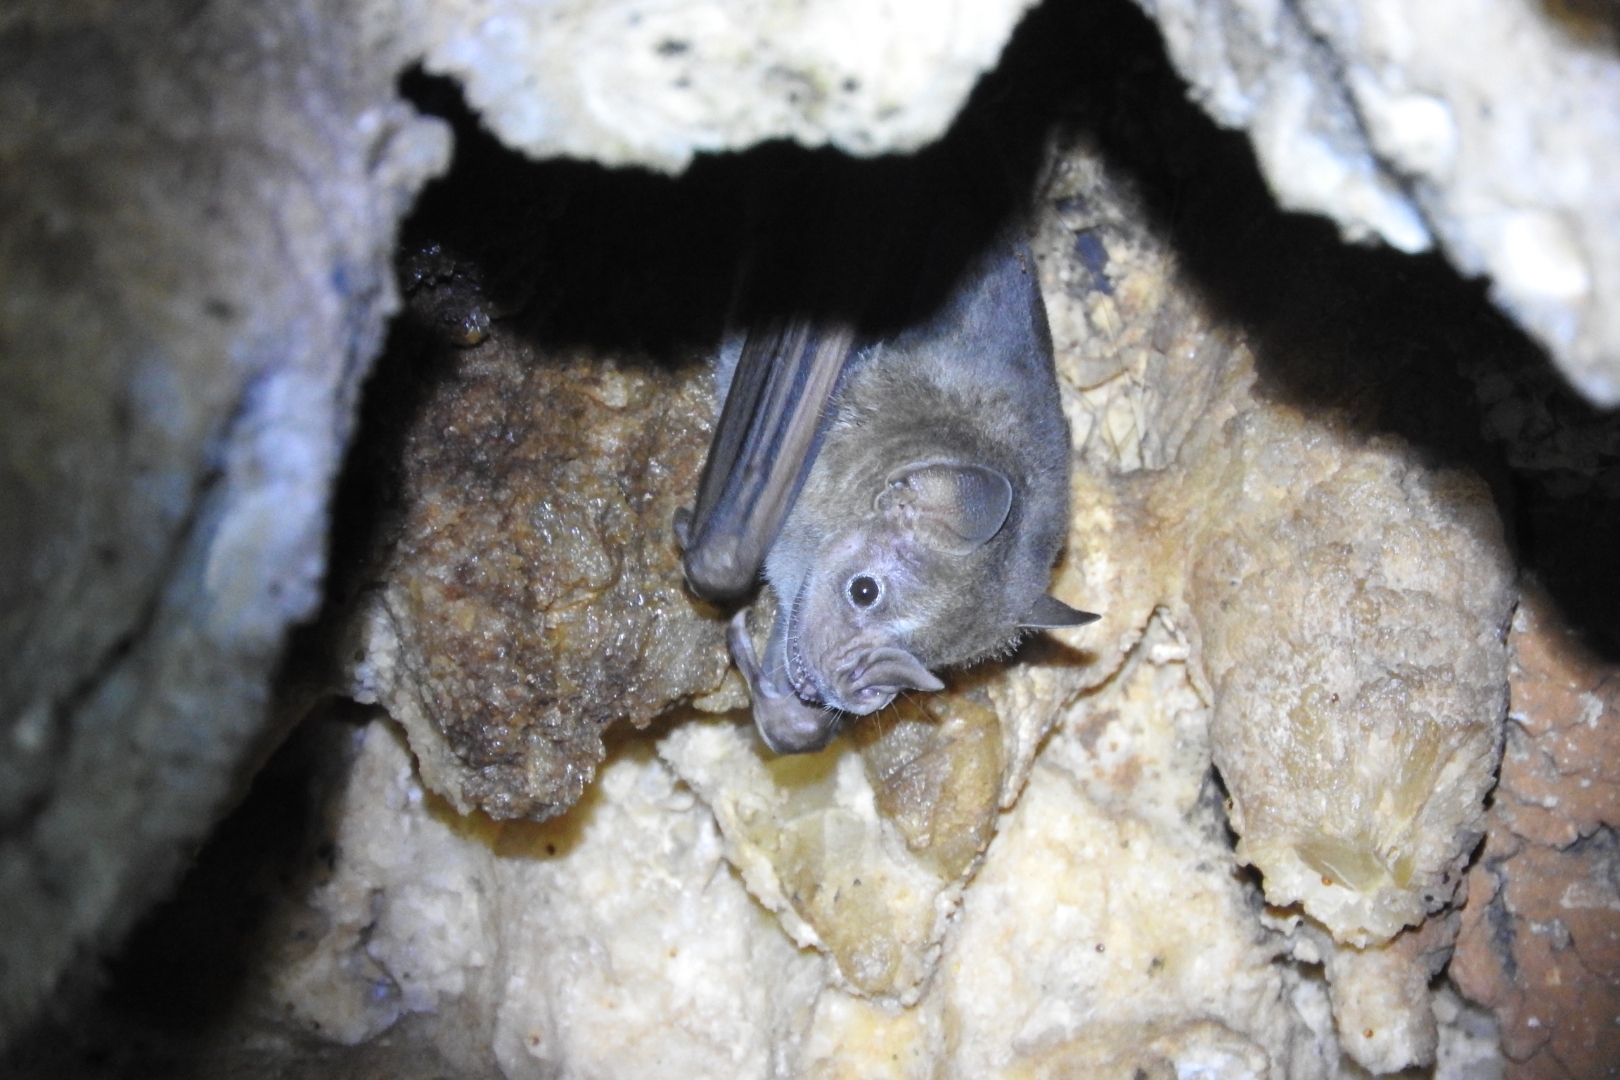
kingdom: Animalia
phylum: Chordata
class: Mammalia
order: Chiroptera
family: Phyllostomidae
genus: Artibeus
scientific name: Artibeus jamaicensis
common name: Jamaican fruit-eating bat
